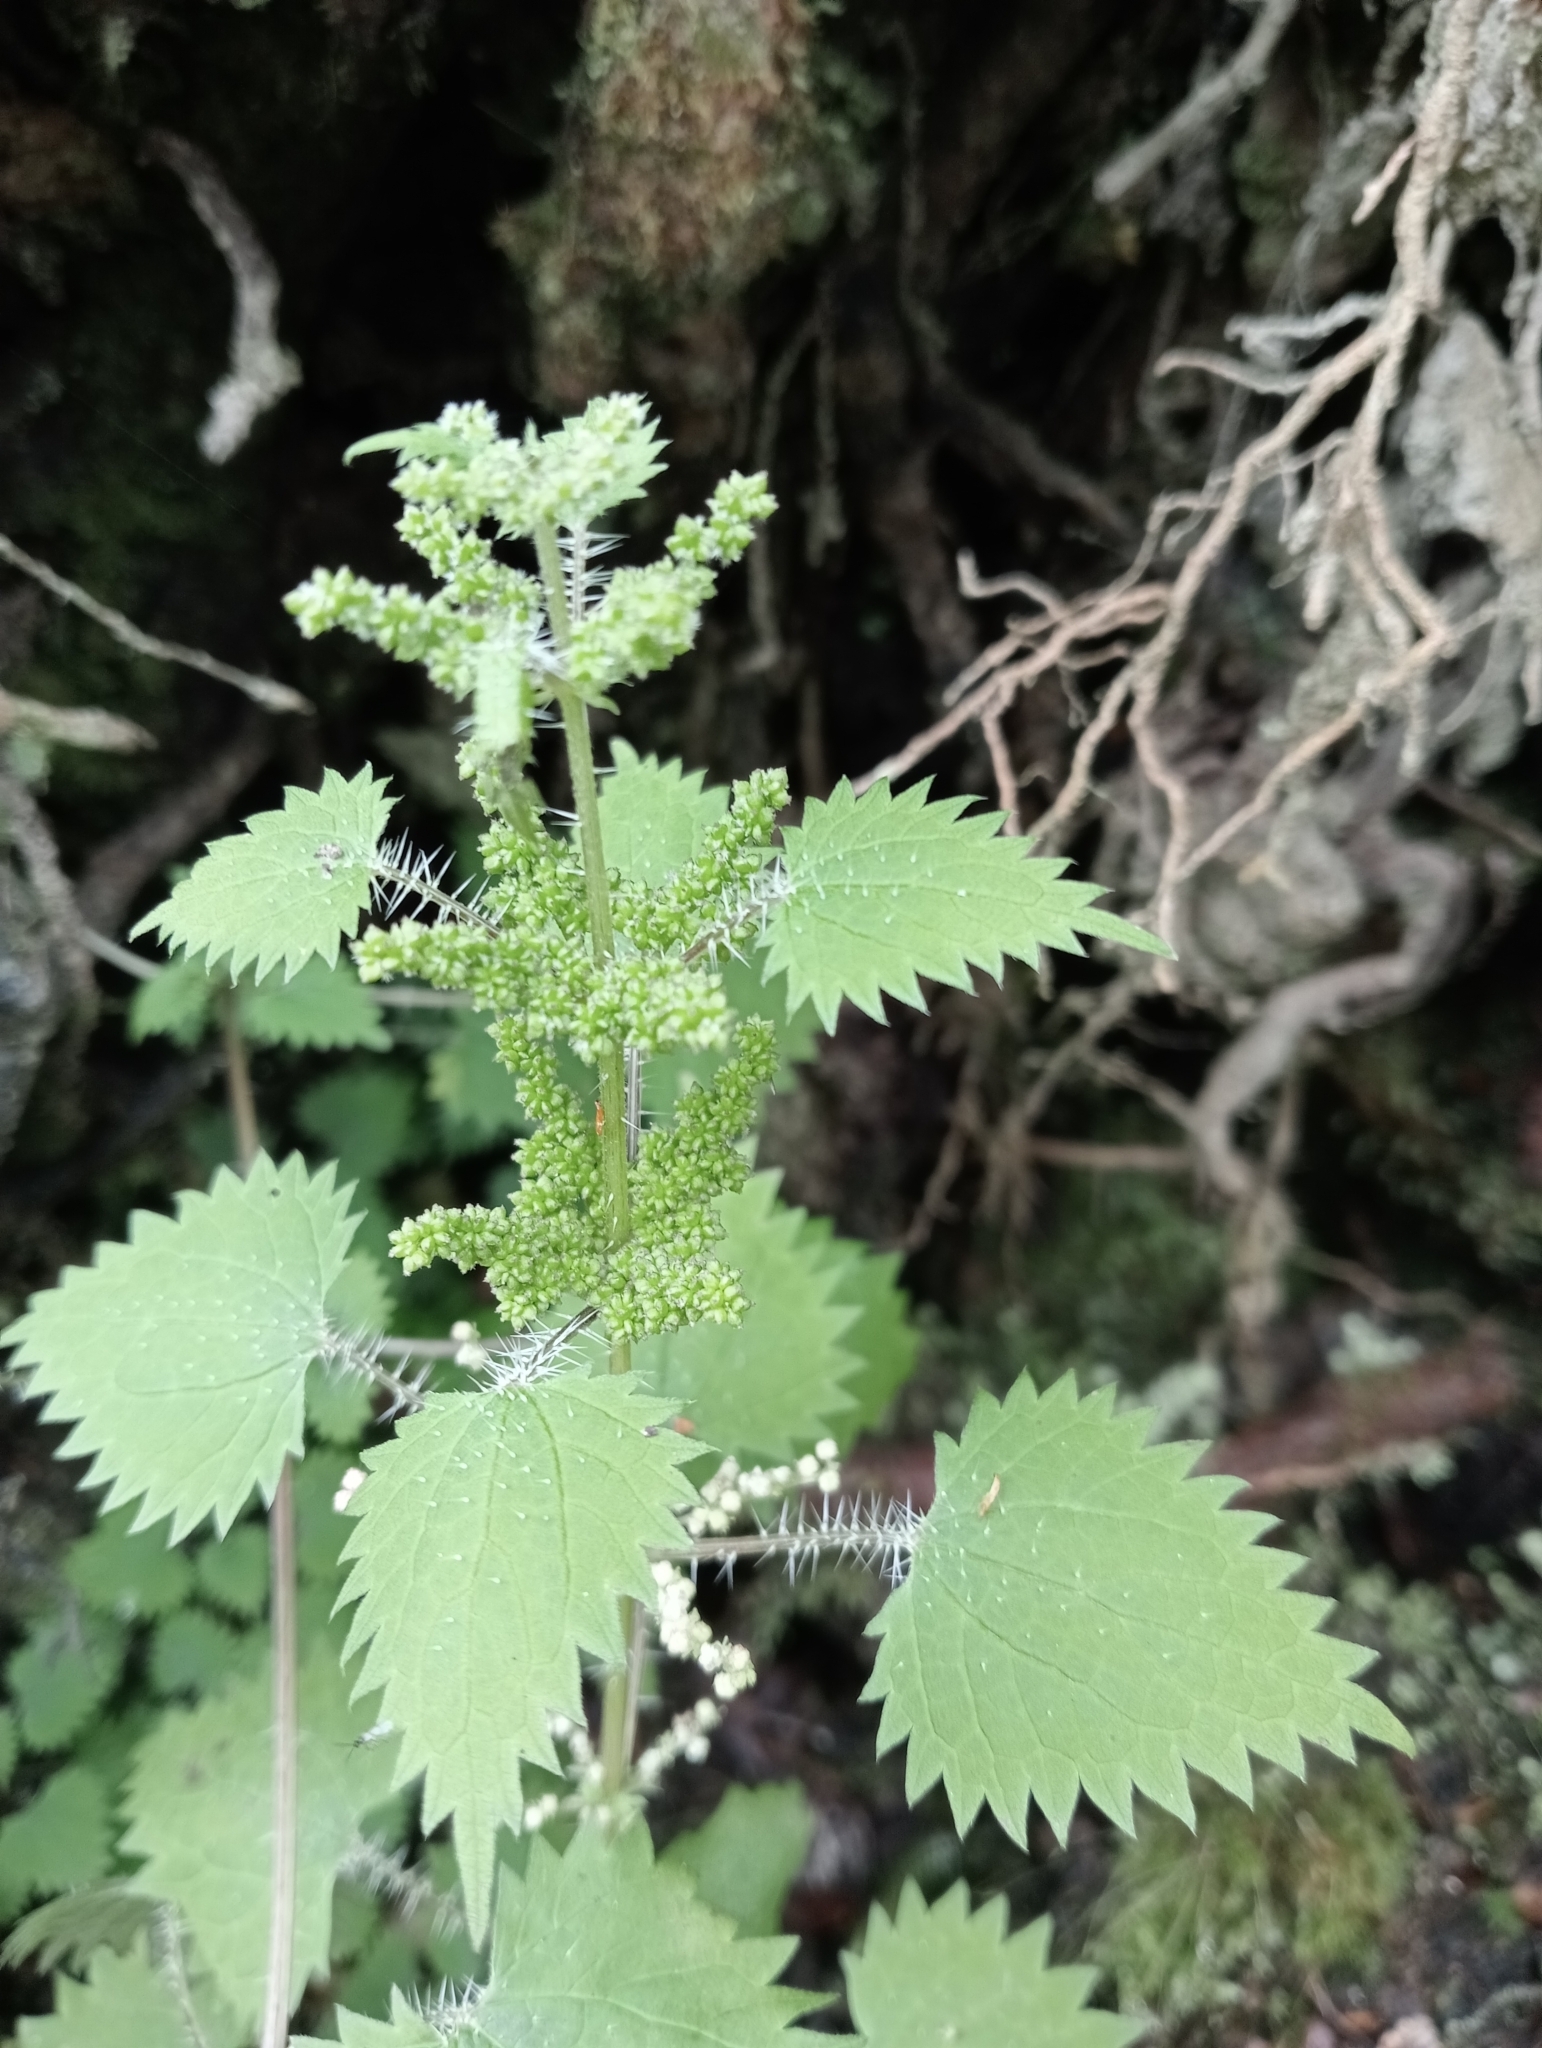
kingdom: Plantae
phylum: Tracheophyta
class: Magnoliopsida
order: Rosales
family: Urticaceae
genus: Urtica
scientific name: Urtica sykesii
